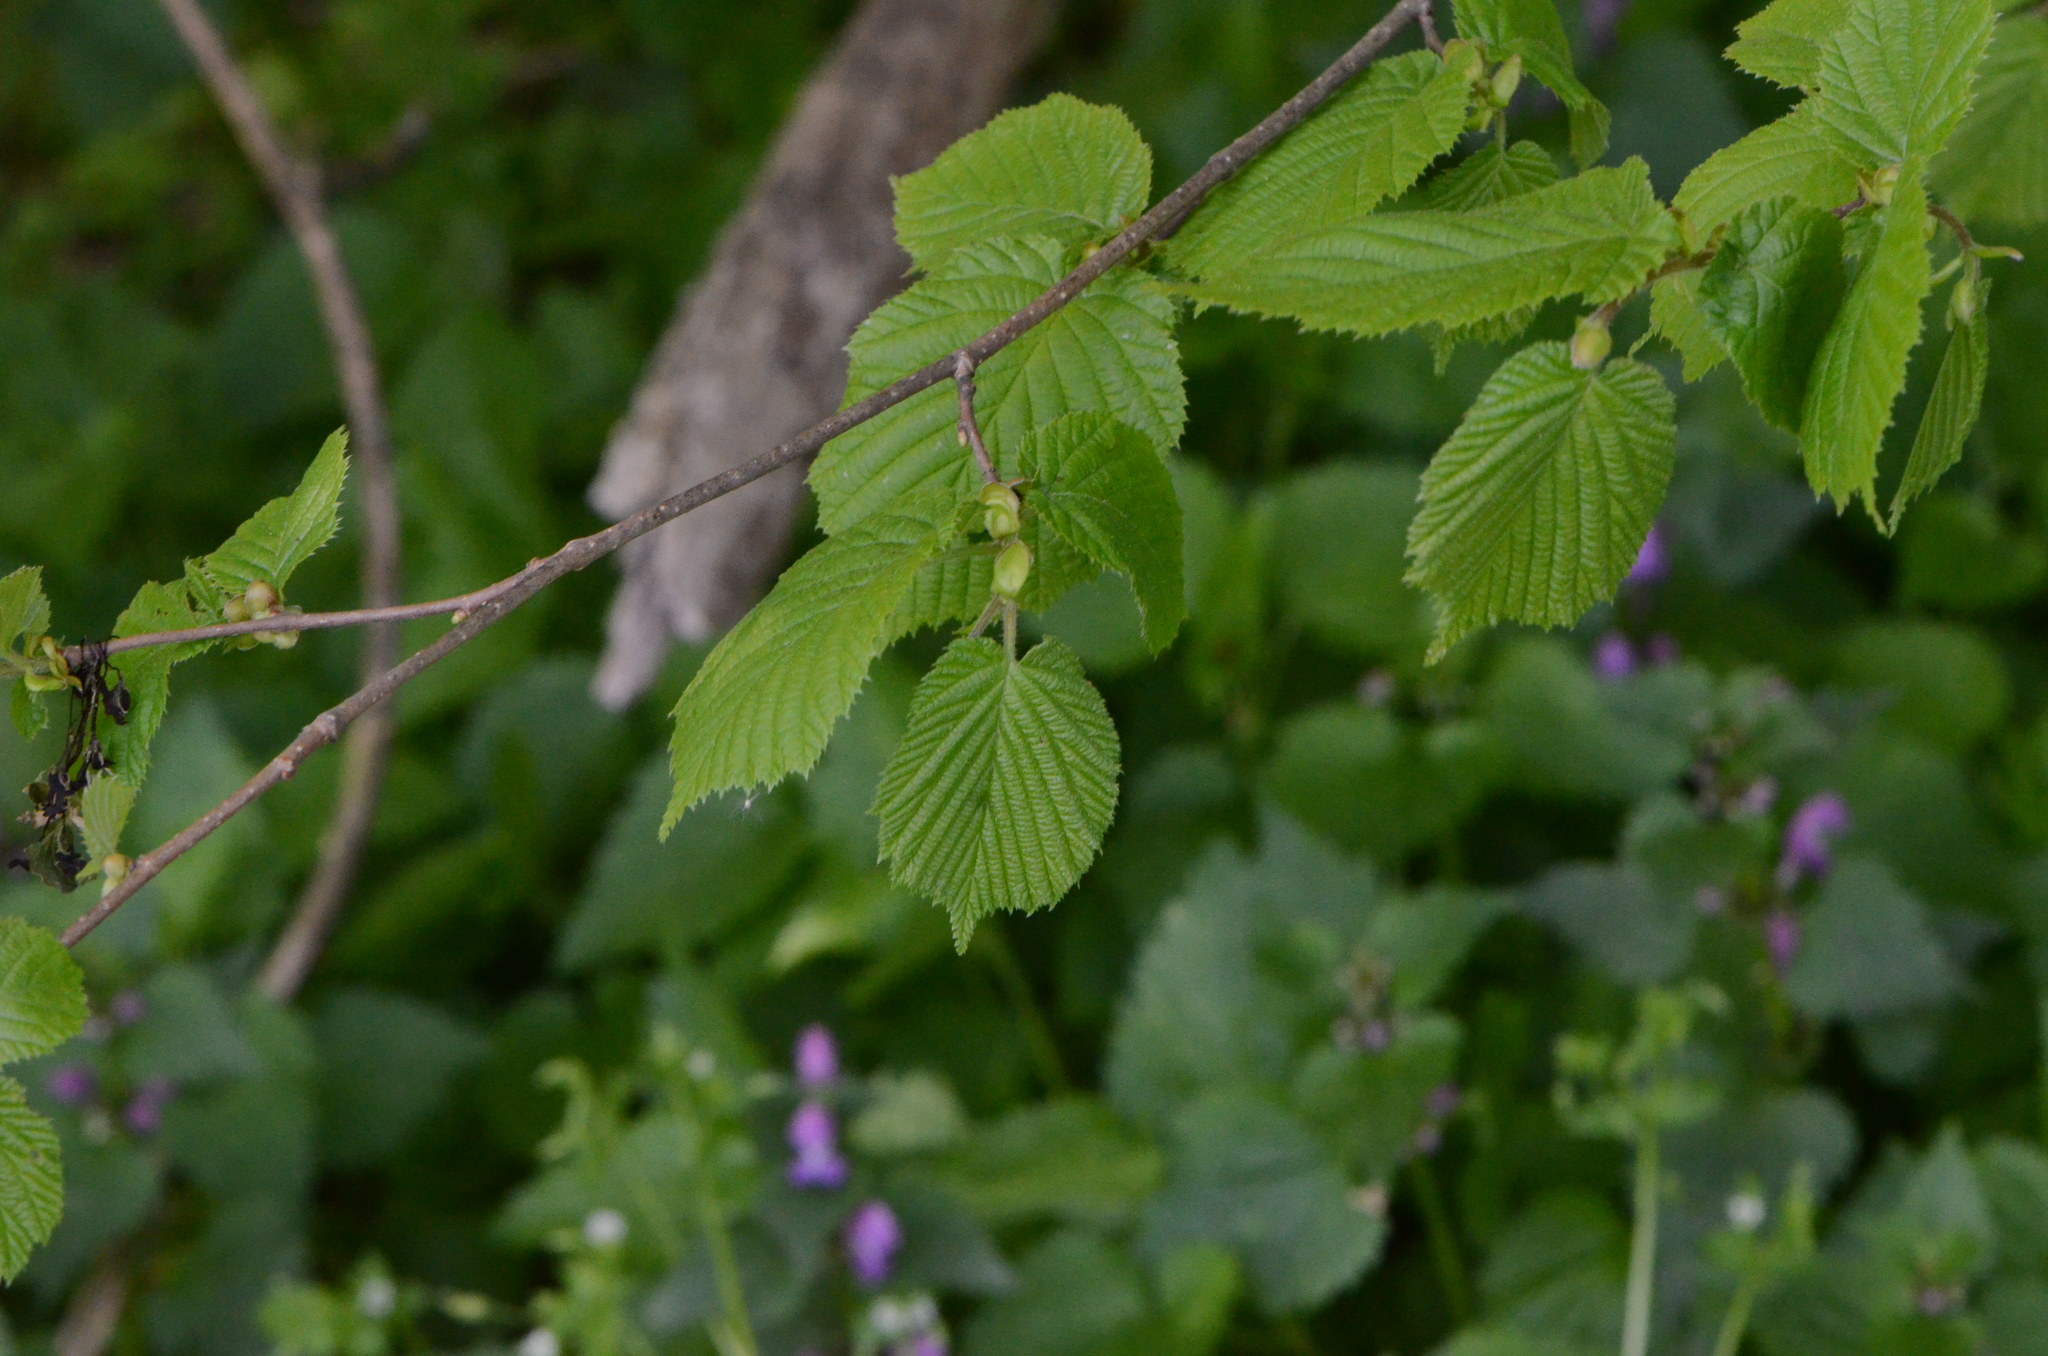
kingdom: Plantae
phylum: Tracheophyta
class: Magnoliopsida
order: Fagales
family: Betulaceae
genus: Corylus
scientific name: Corylus avellana
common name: European hazel
